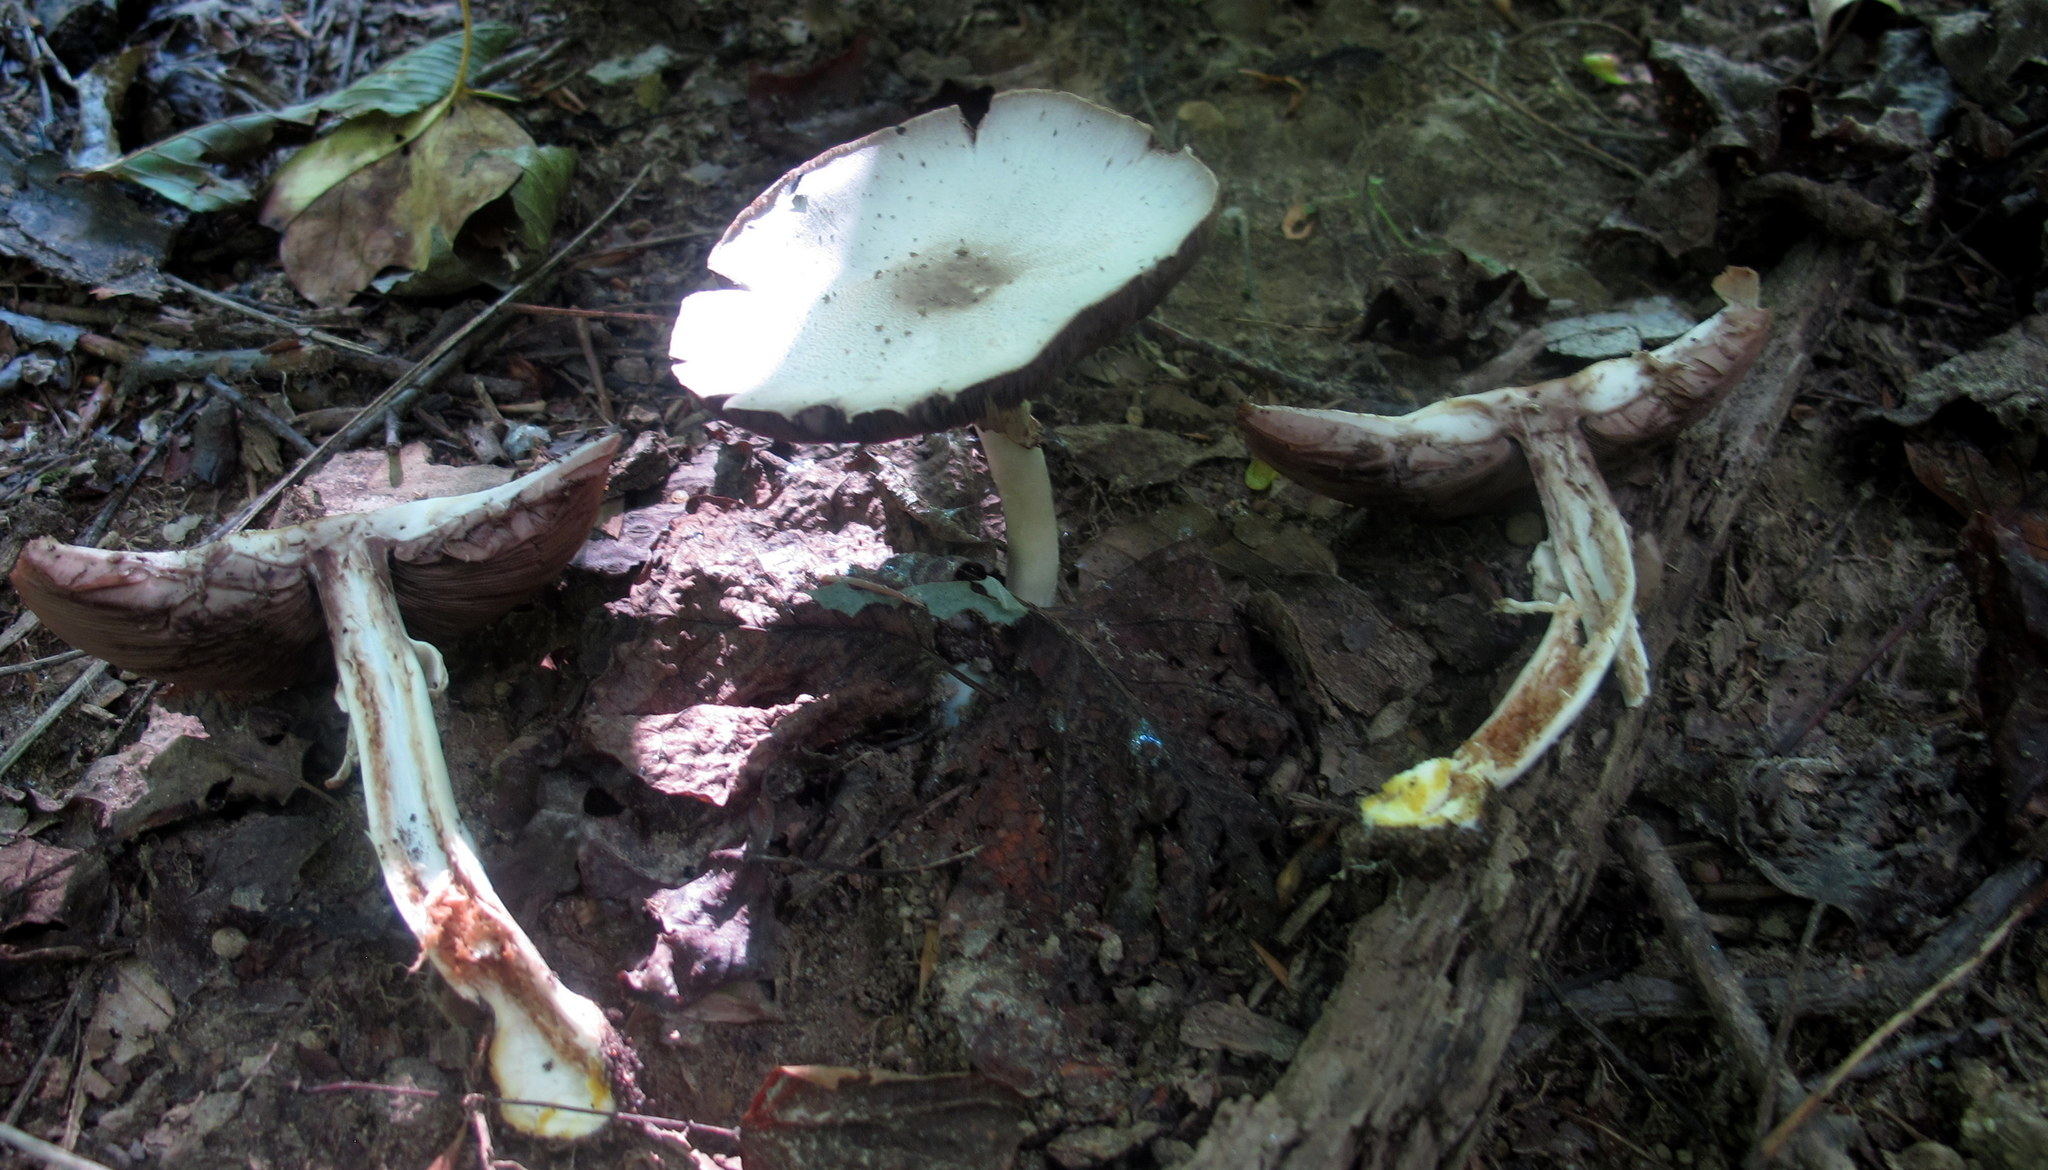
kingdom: Fungi
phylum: Basidiomycota
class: Agaricomycetes
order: Agaricales
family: Agaricaceae
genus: Agaricus
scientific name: Agaricus placomyces
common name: Inky mushroom
